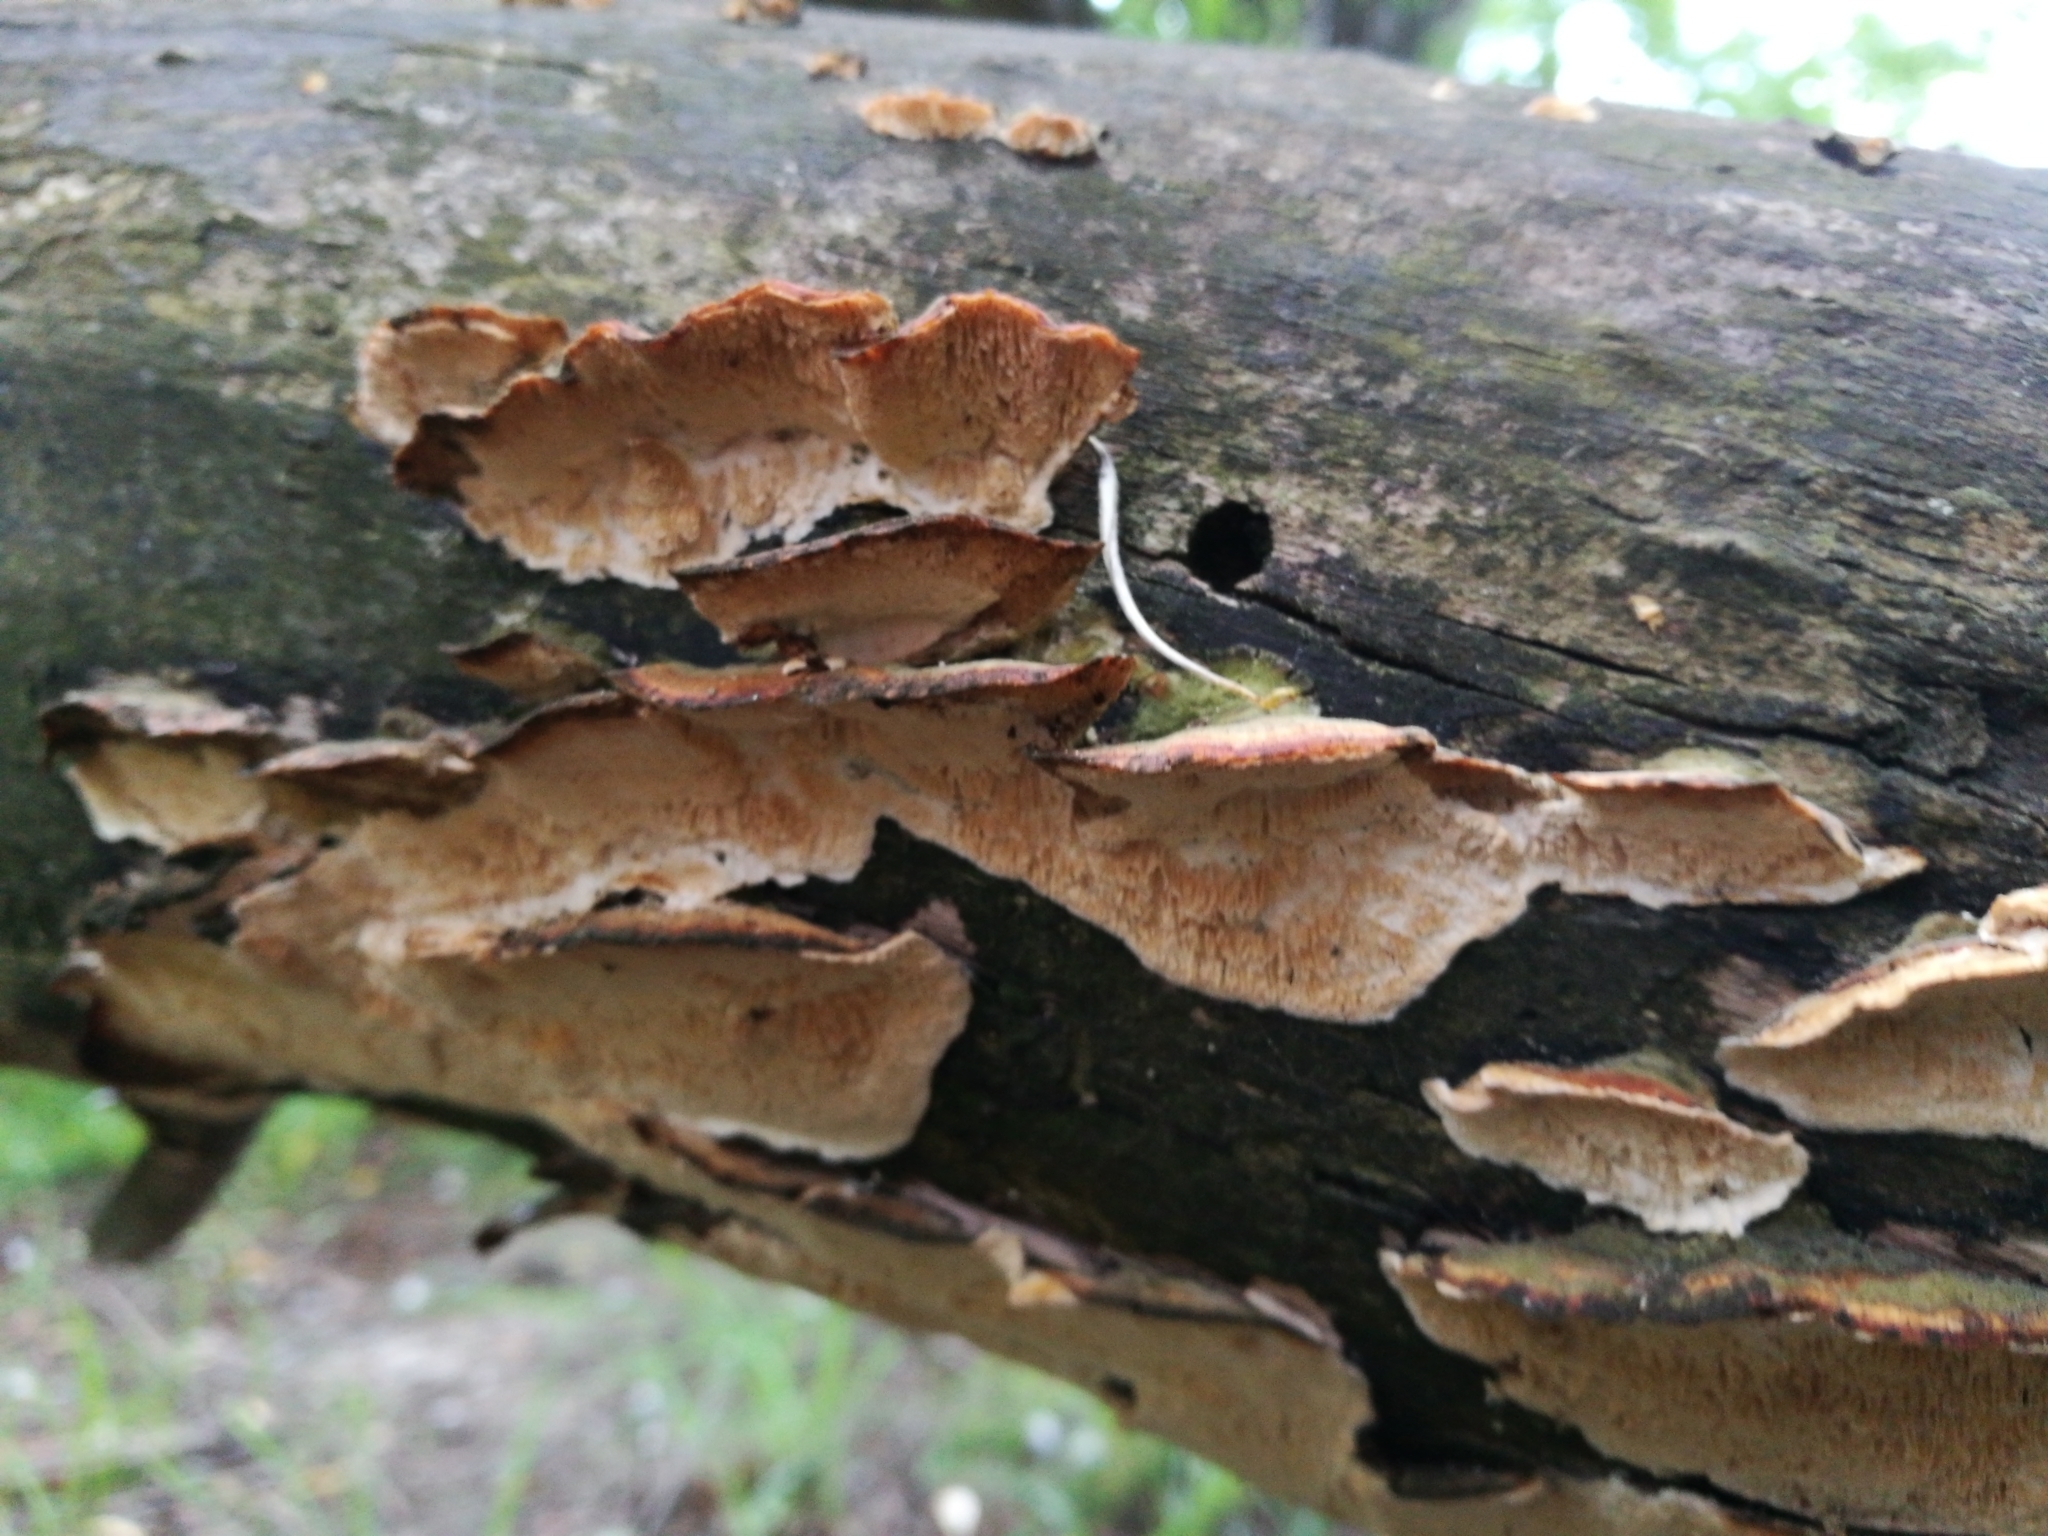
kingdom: Fungi
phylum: Basidiomycota
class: Agaricomycetes
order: Polyporales
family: Polyporaceae
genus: Trametes
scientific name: Trametes versicolor
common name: Turkeytail
